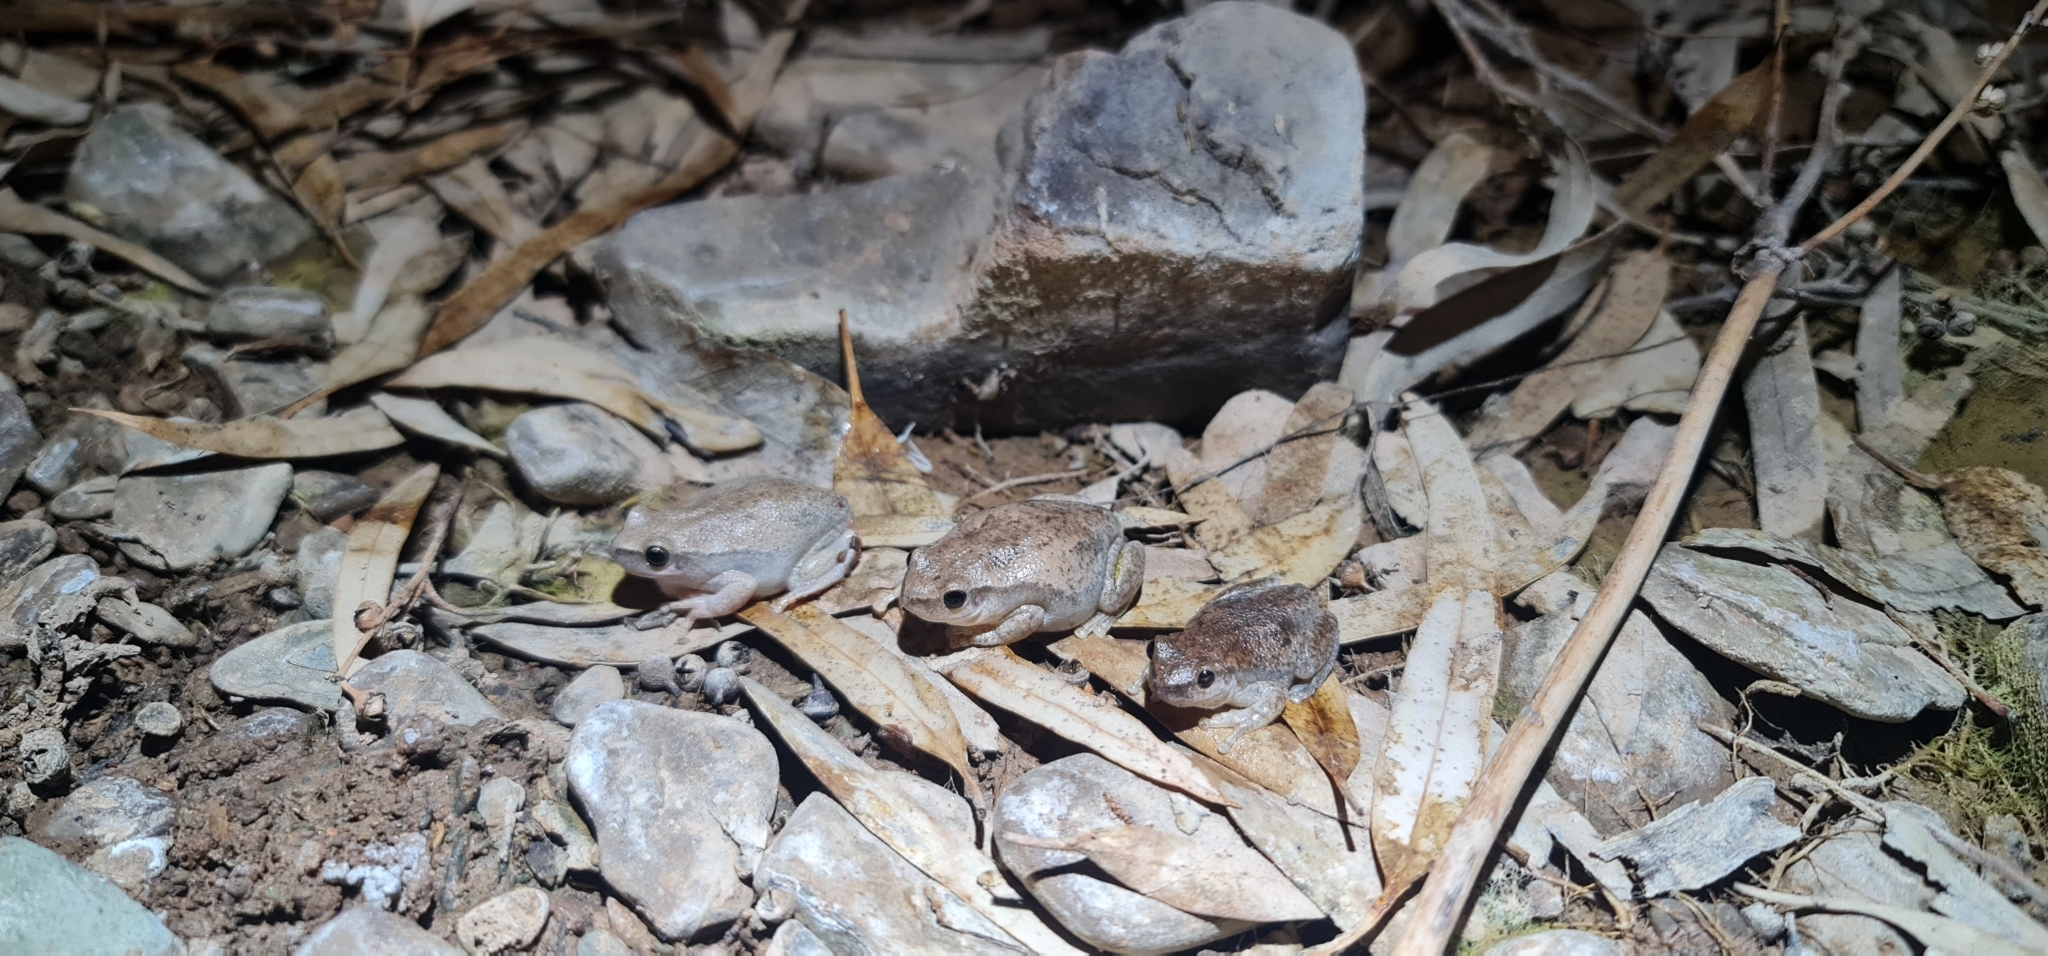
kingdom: Animalia
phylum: Chordata
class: Amphibia
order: Anura
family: Pelodryadidae
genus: Litoria
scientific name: Litoria rubella
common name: Desert tree frog
